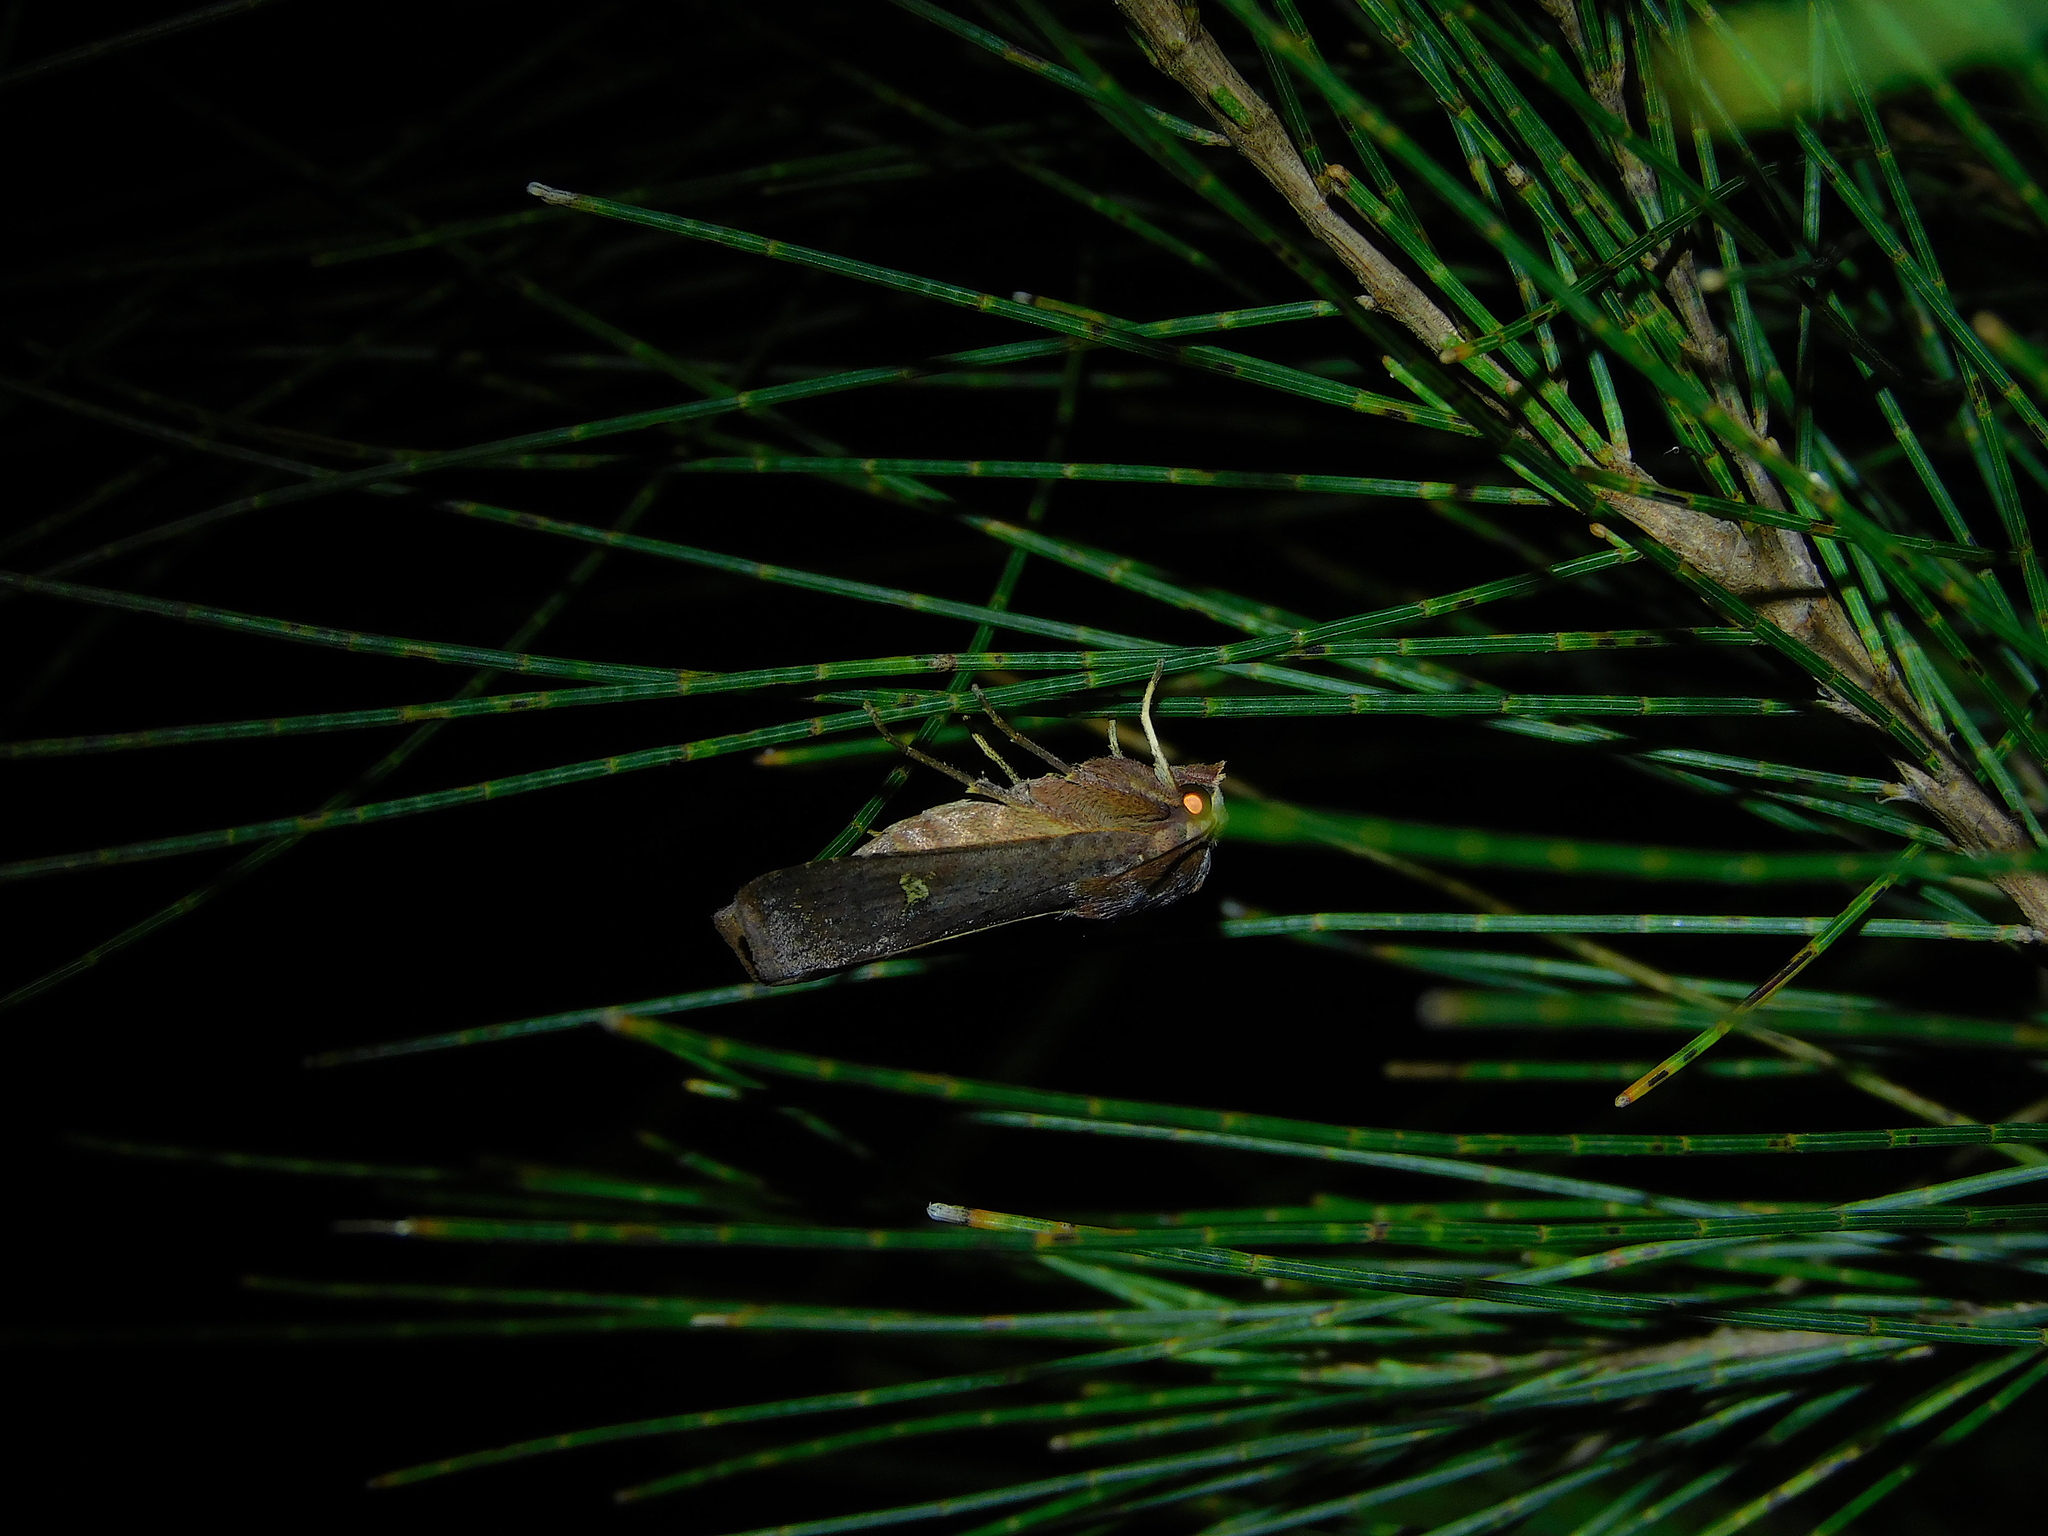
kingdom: Animalia
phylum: Arthropoda
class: Insecta
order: Lepidoptera
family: Noctuidae
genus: Diarsia
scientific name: Diarsia intermixta
